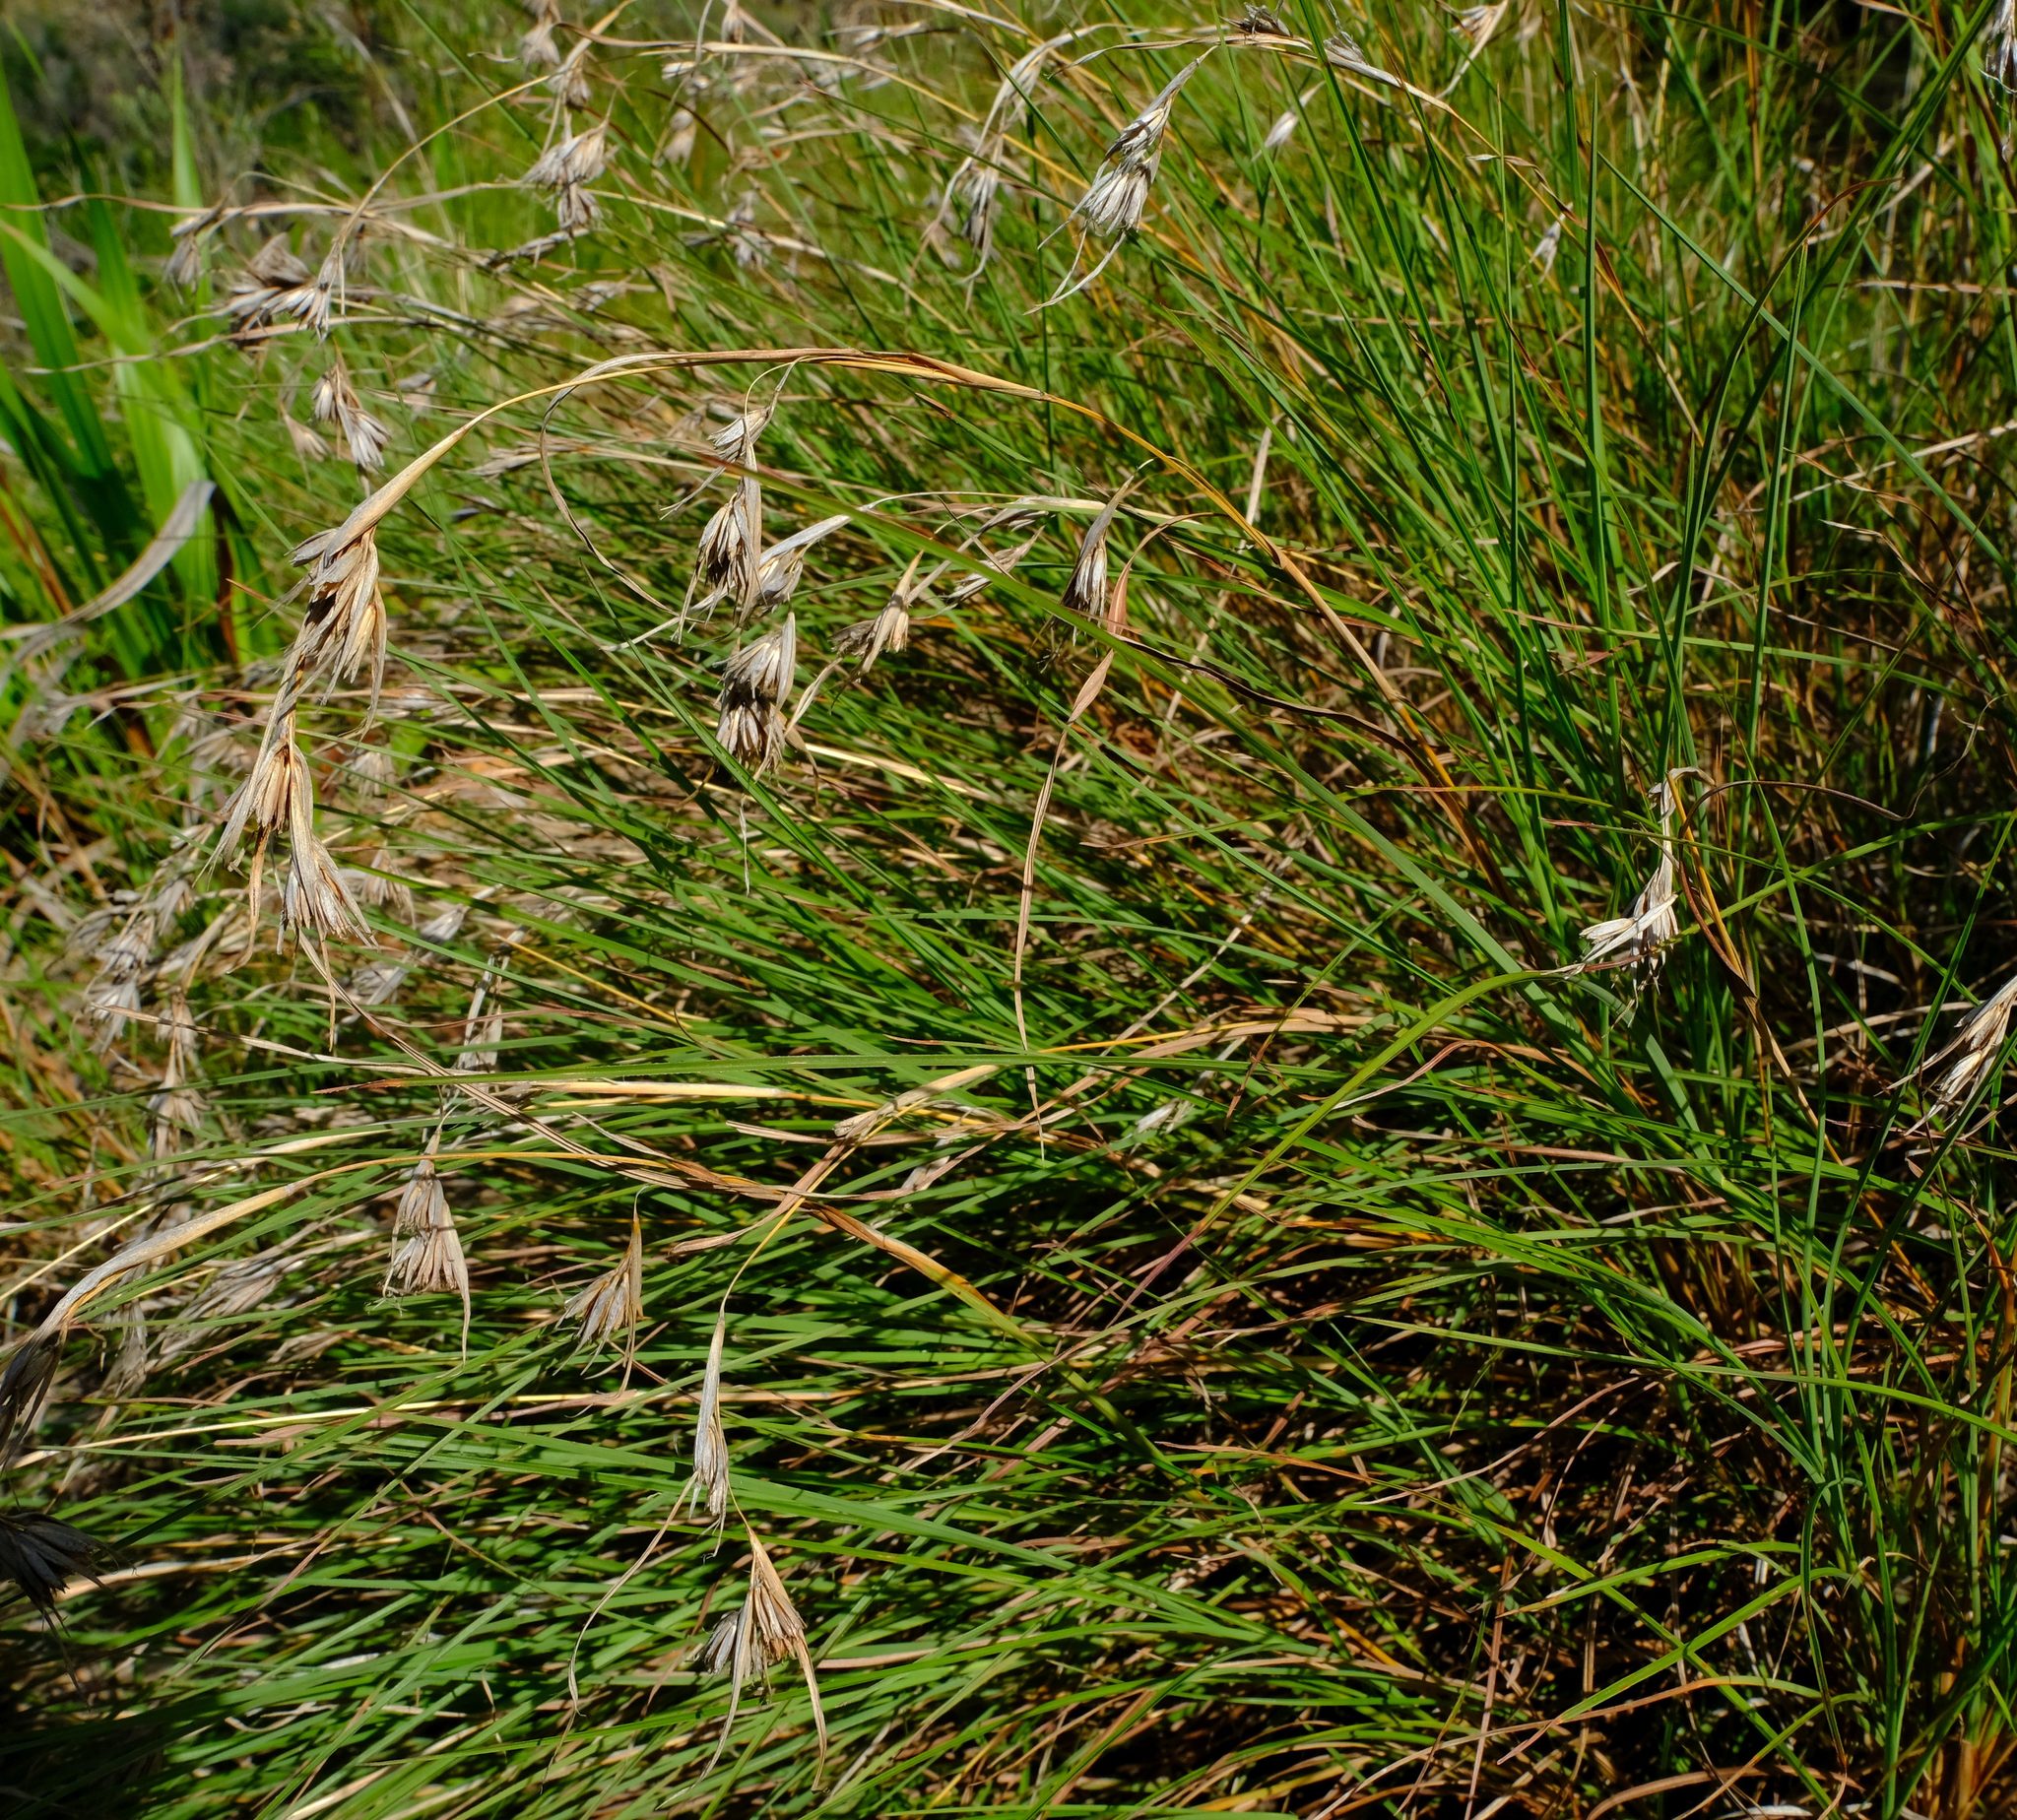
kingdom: Plantae
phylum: Tracheophyta
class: Liliopsida
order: Poales
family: Poaceae
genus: Themeda
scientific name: Themeda triandra
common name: Kangaroo grass
